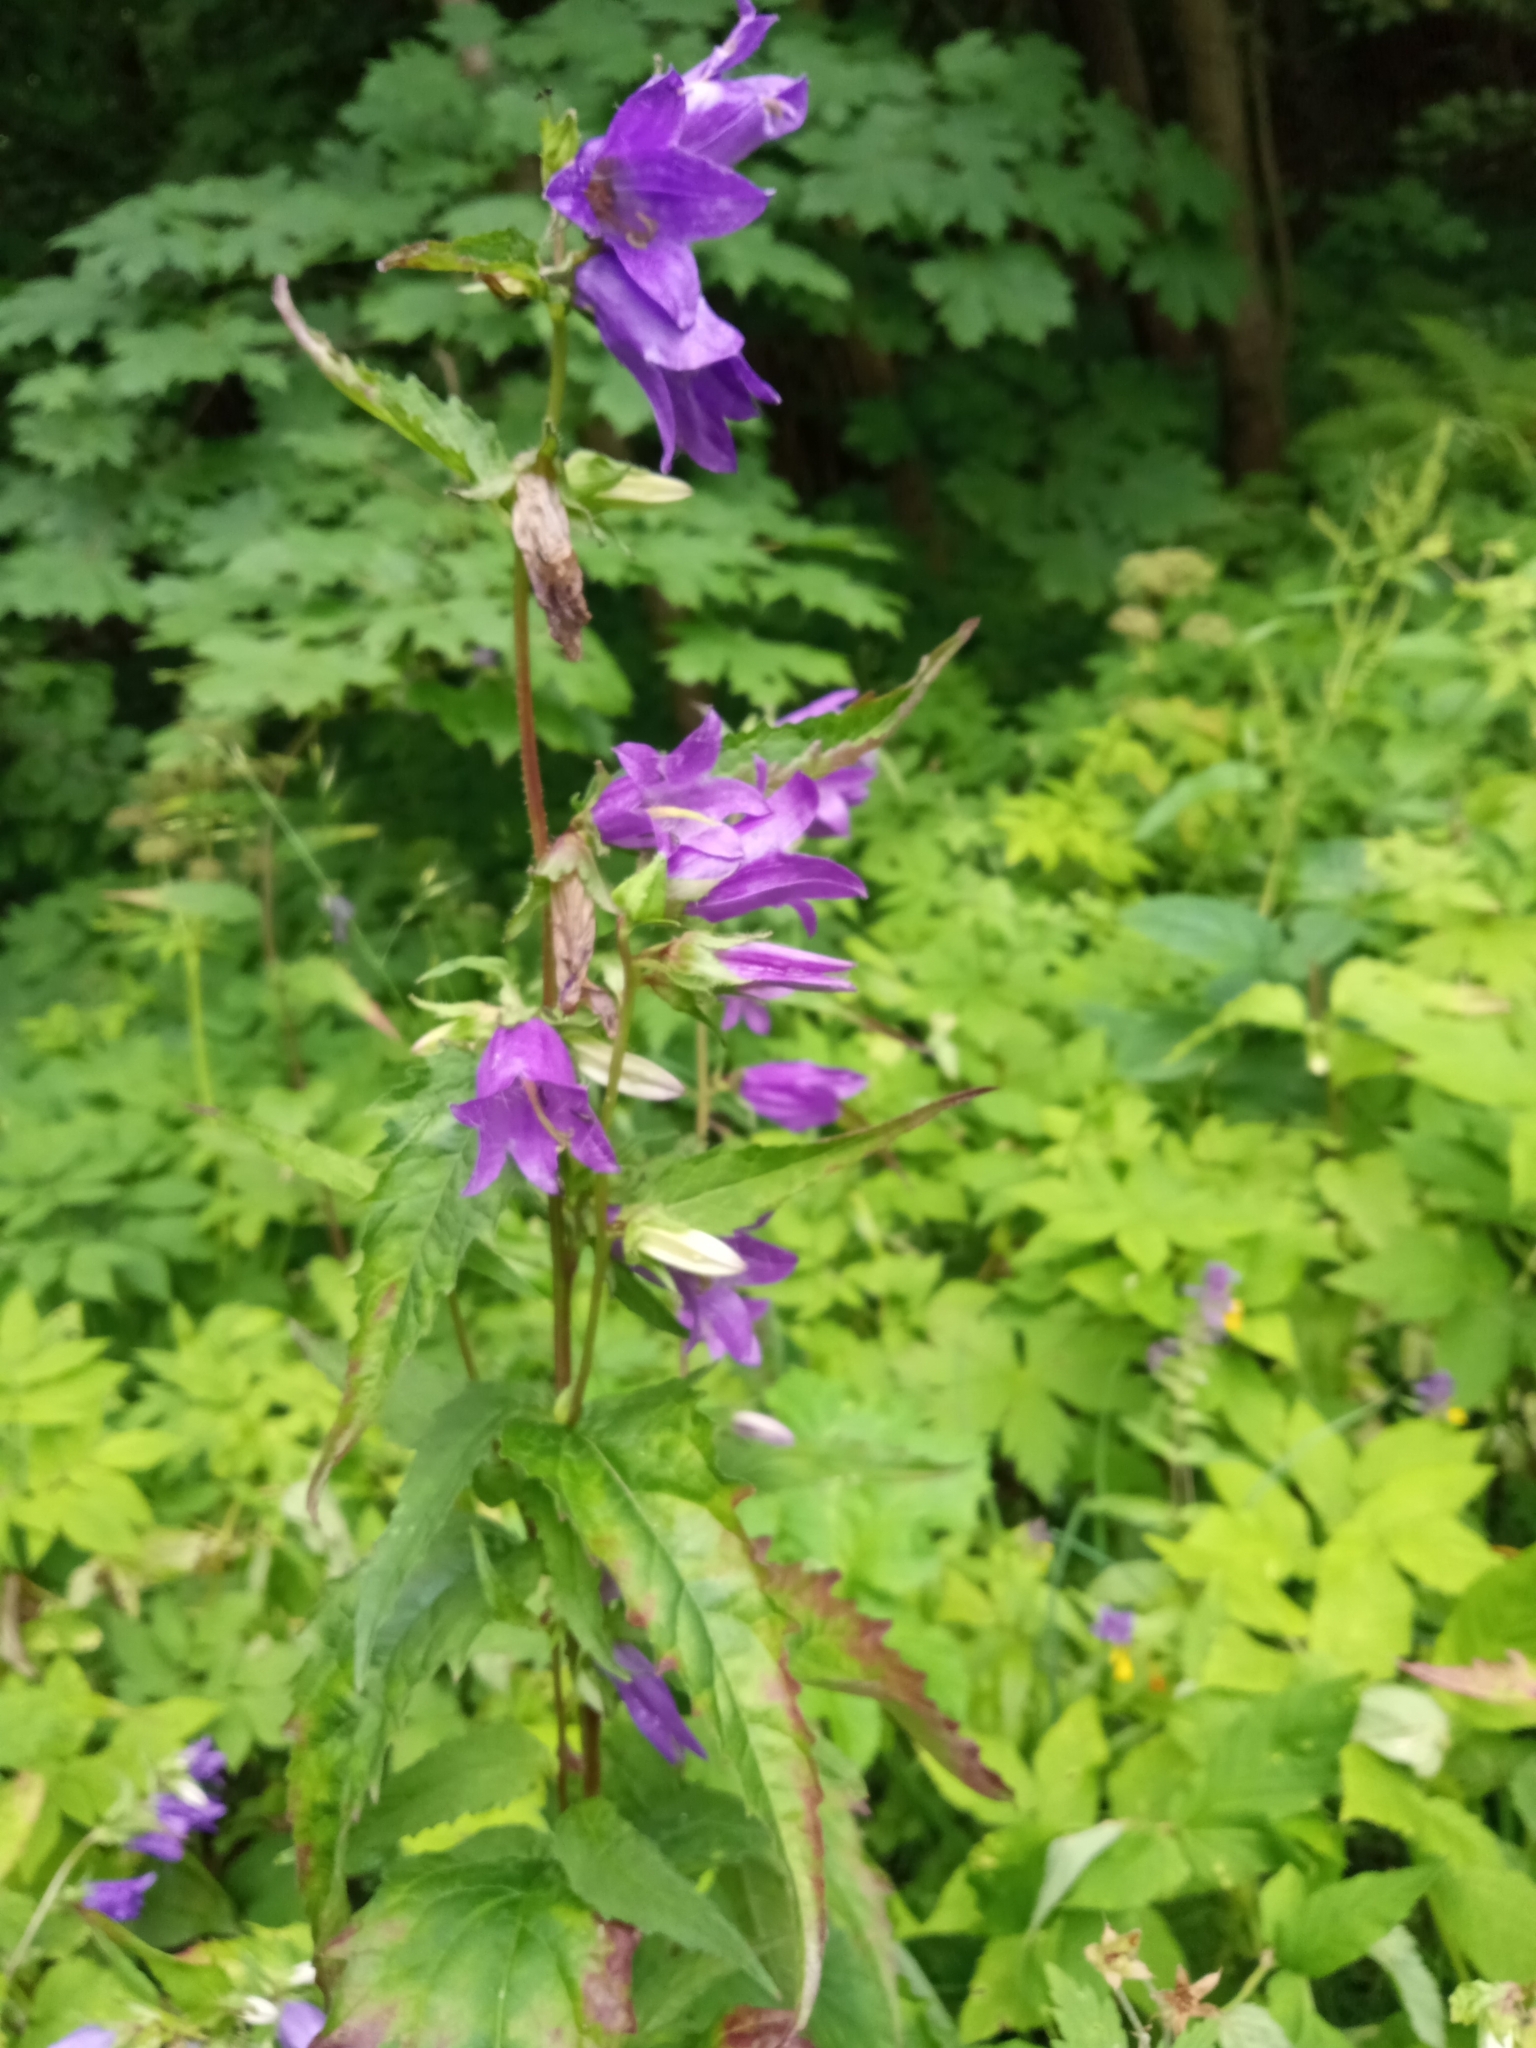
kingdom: Plantae
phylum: Tracheophyta
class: Magnoliopsida
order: Asterales
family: Campanulaceae
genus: Campanula
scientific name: Campanula trachelium
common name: Nettle-leaved bellflower
